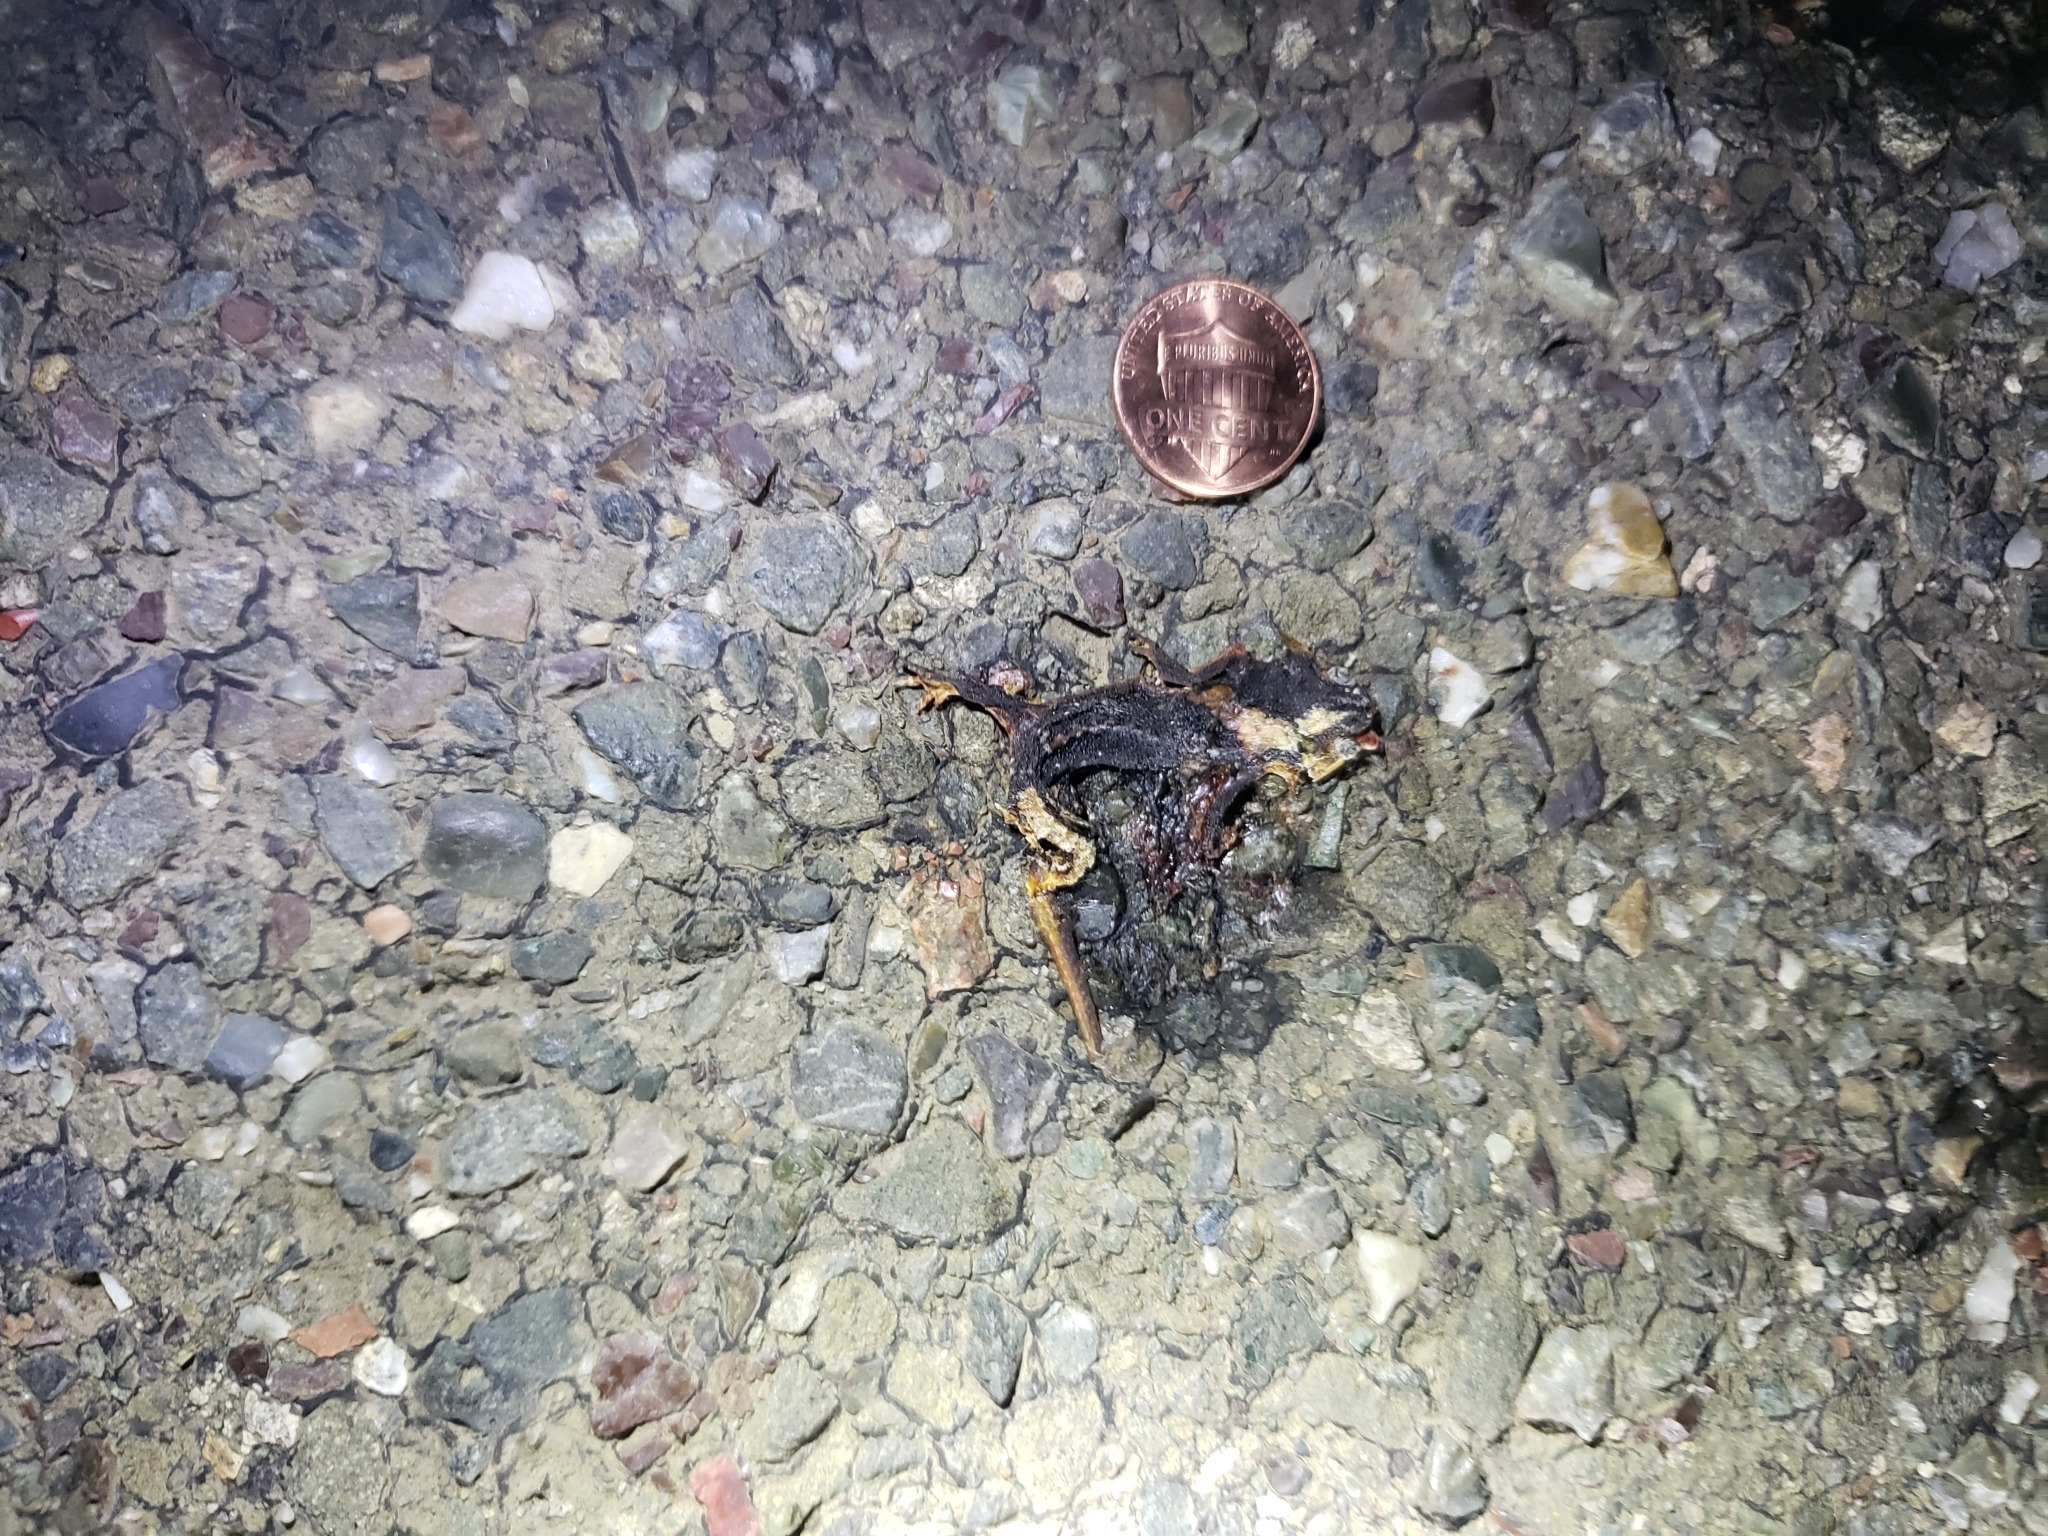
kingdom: Animalia
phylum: Chordata
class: Amphibia
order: Caudata
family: Salamandridae
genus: Taricha
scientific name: Taricha
